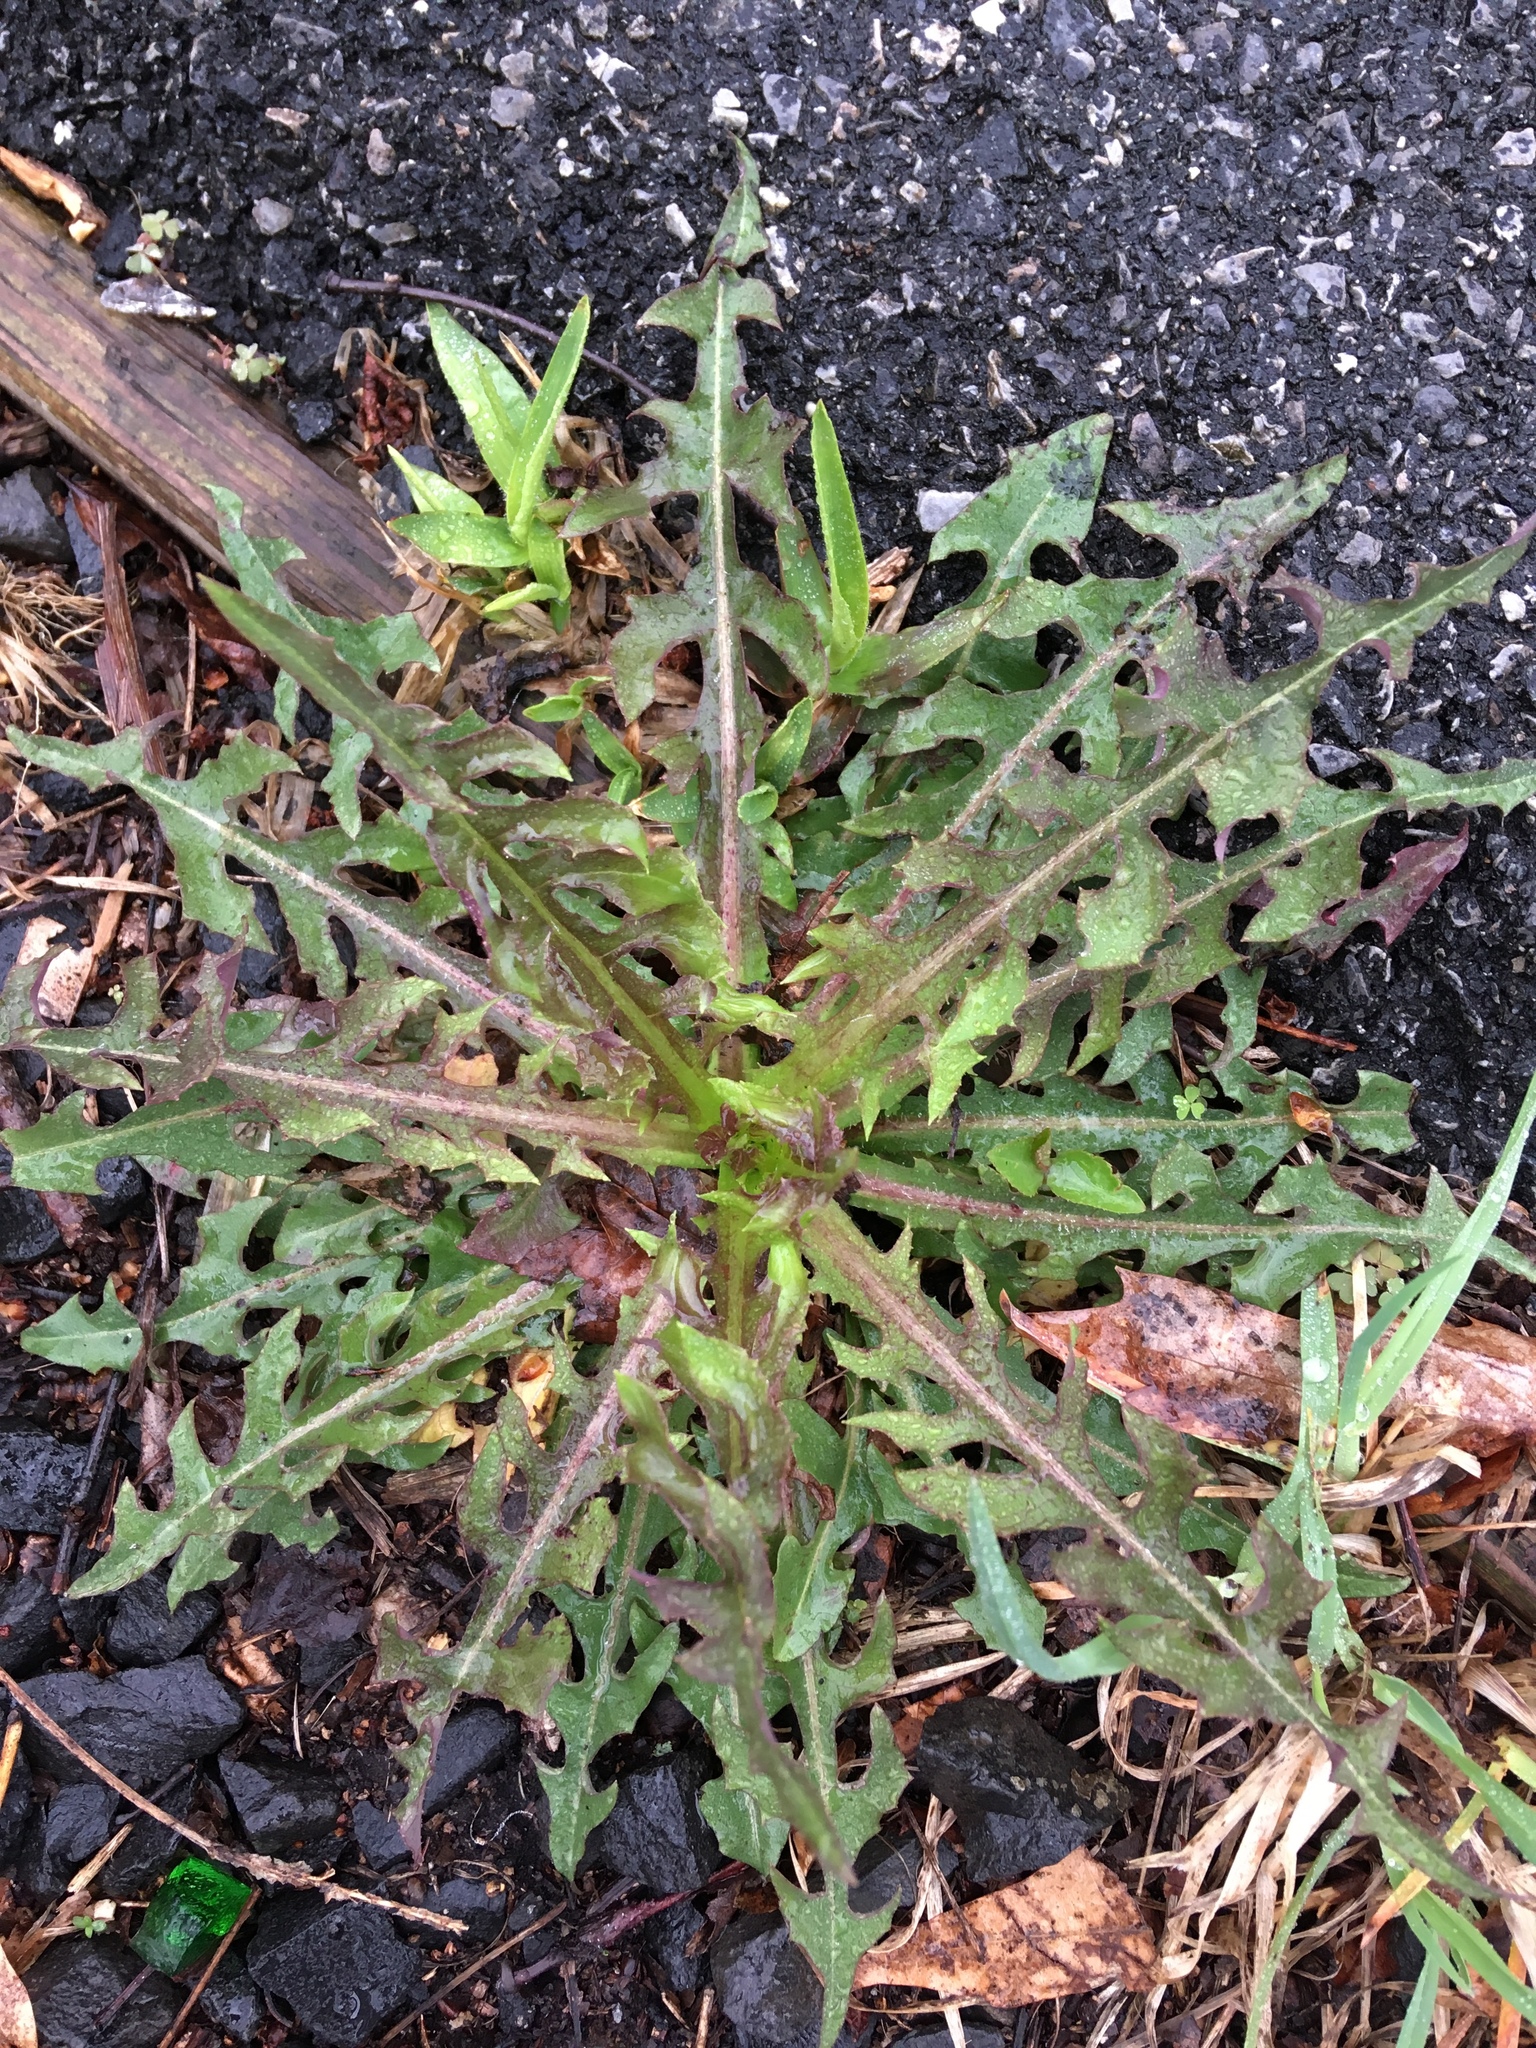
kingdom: Plantae
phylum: Tracheophyta
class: Magnoliopsida
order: Asterales
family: Asteraceae
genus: Taraxacum
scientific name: Taraxacum
